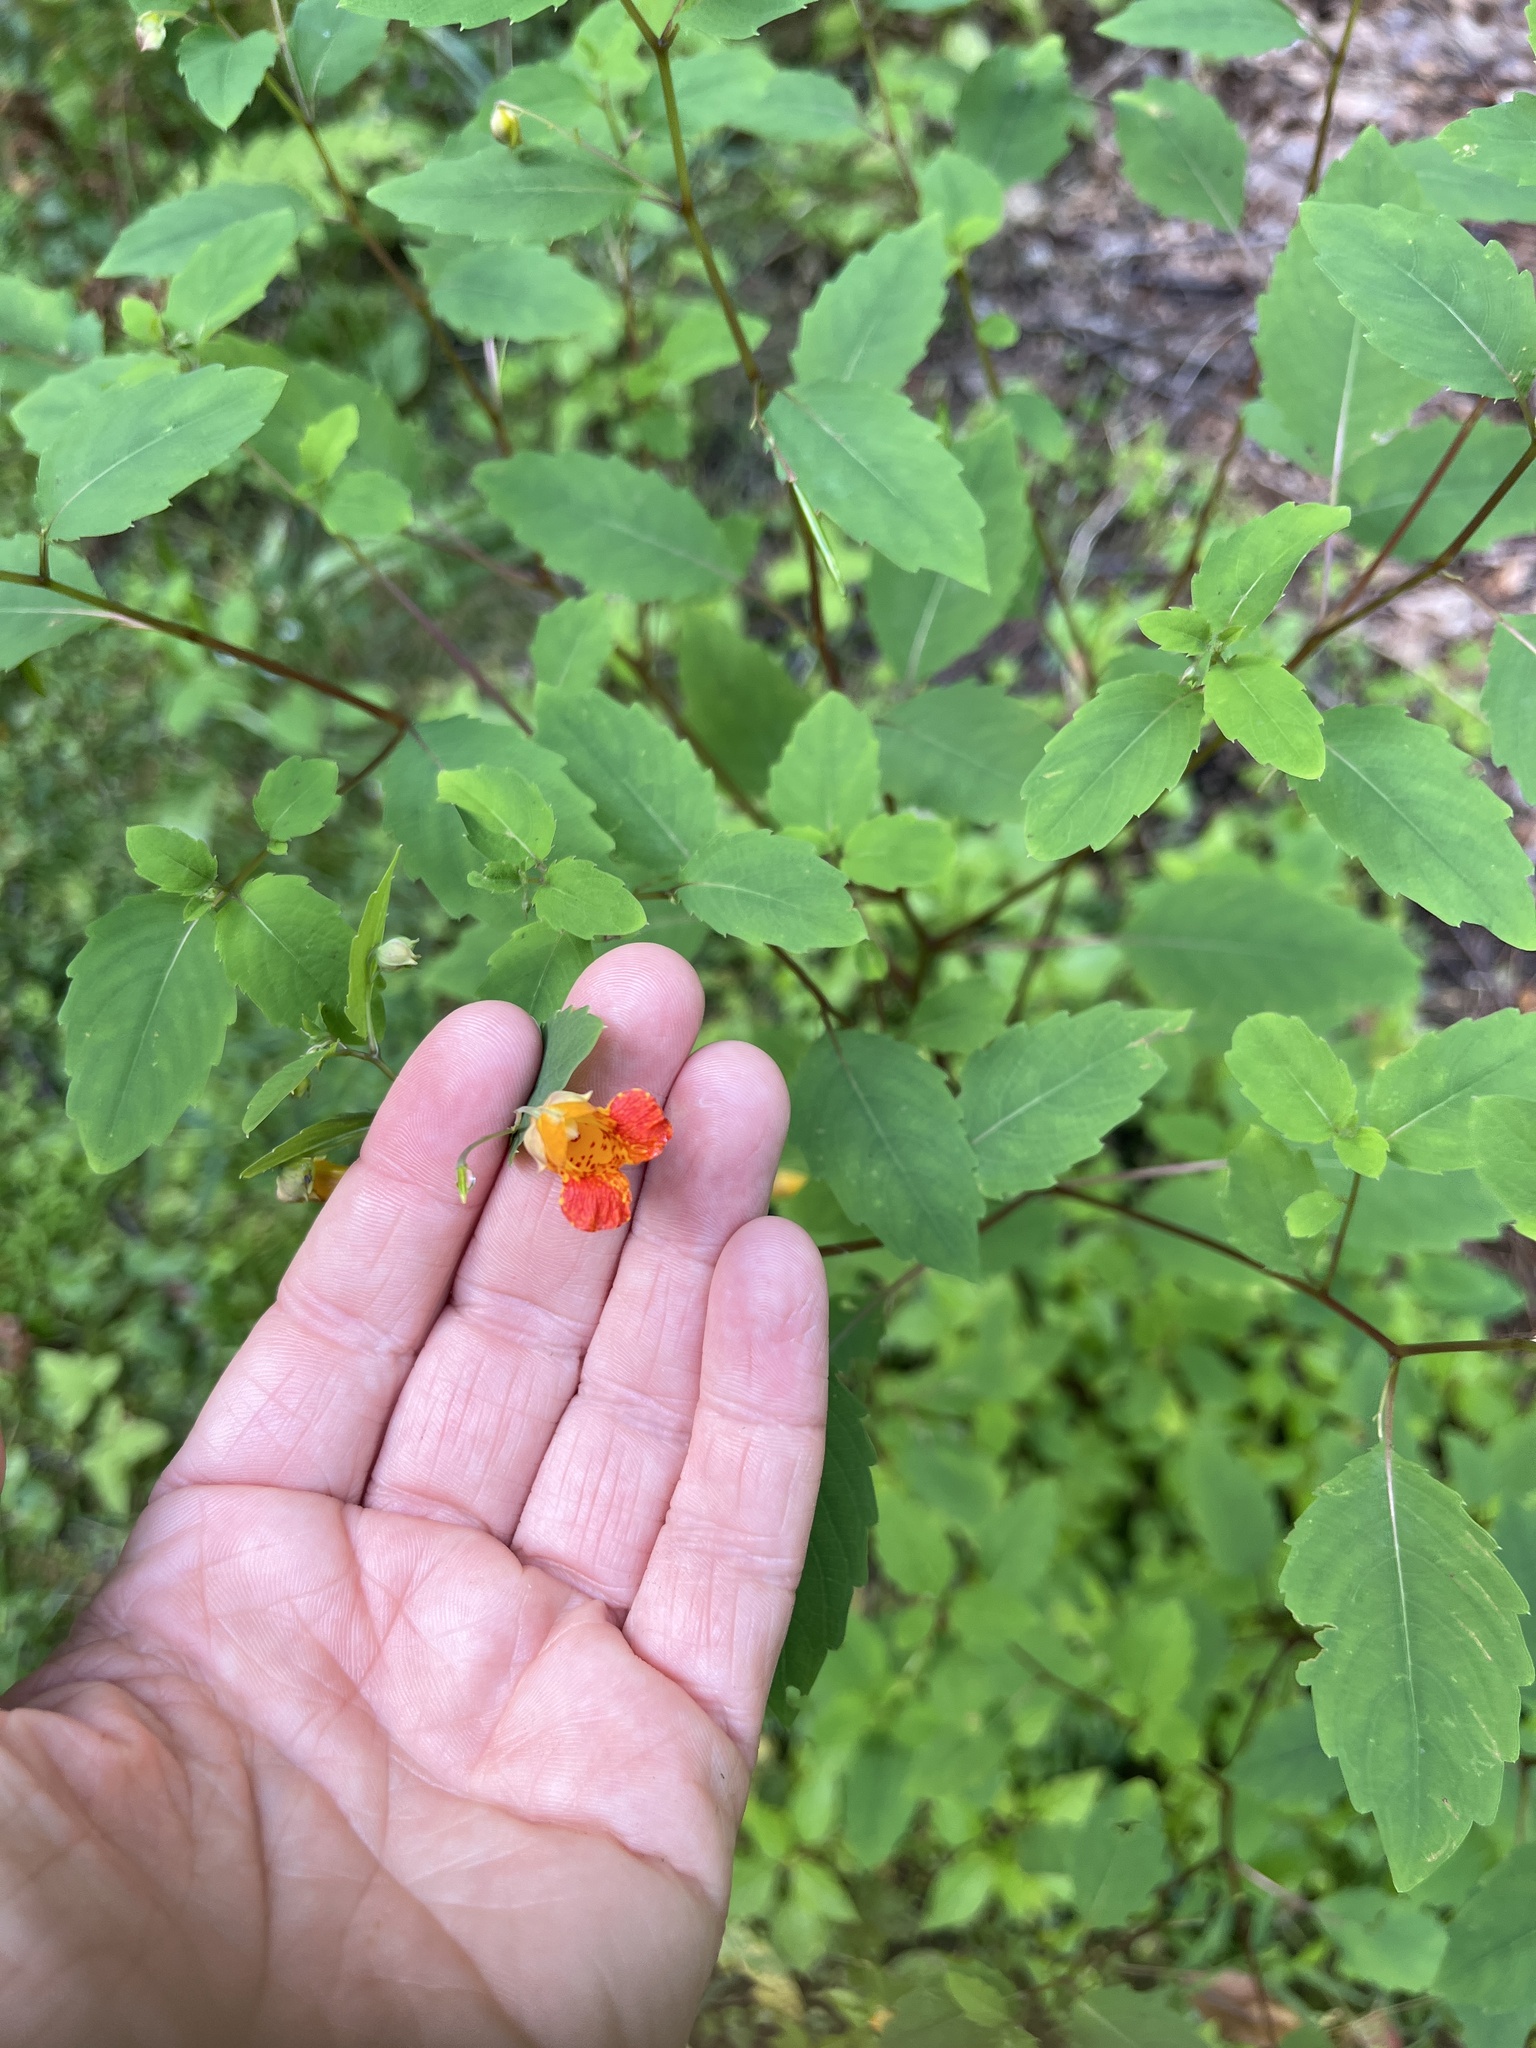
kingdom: Plantae
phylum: Tracheophyta
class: Magnoliopsida
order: Ericales
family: Balsaminaceae
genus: Impatiens
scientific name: Impatiens capensis
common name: Orange balsam
